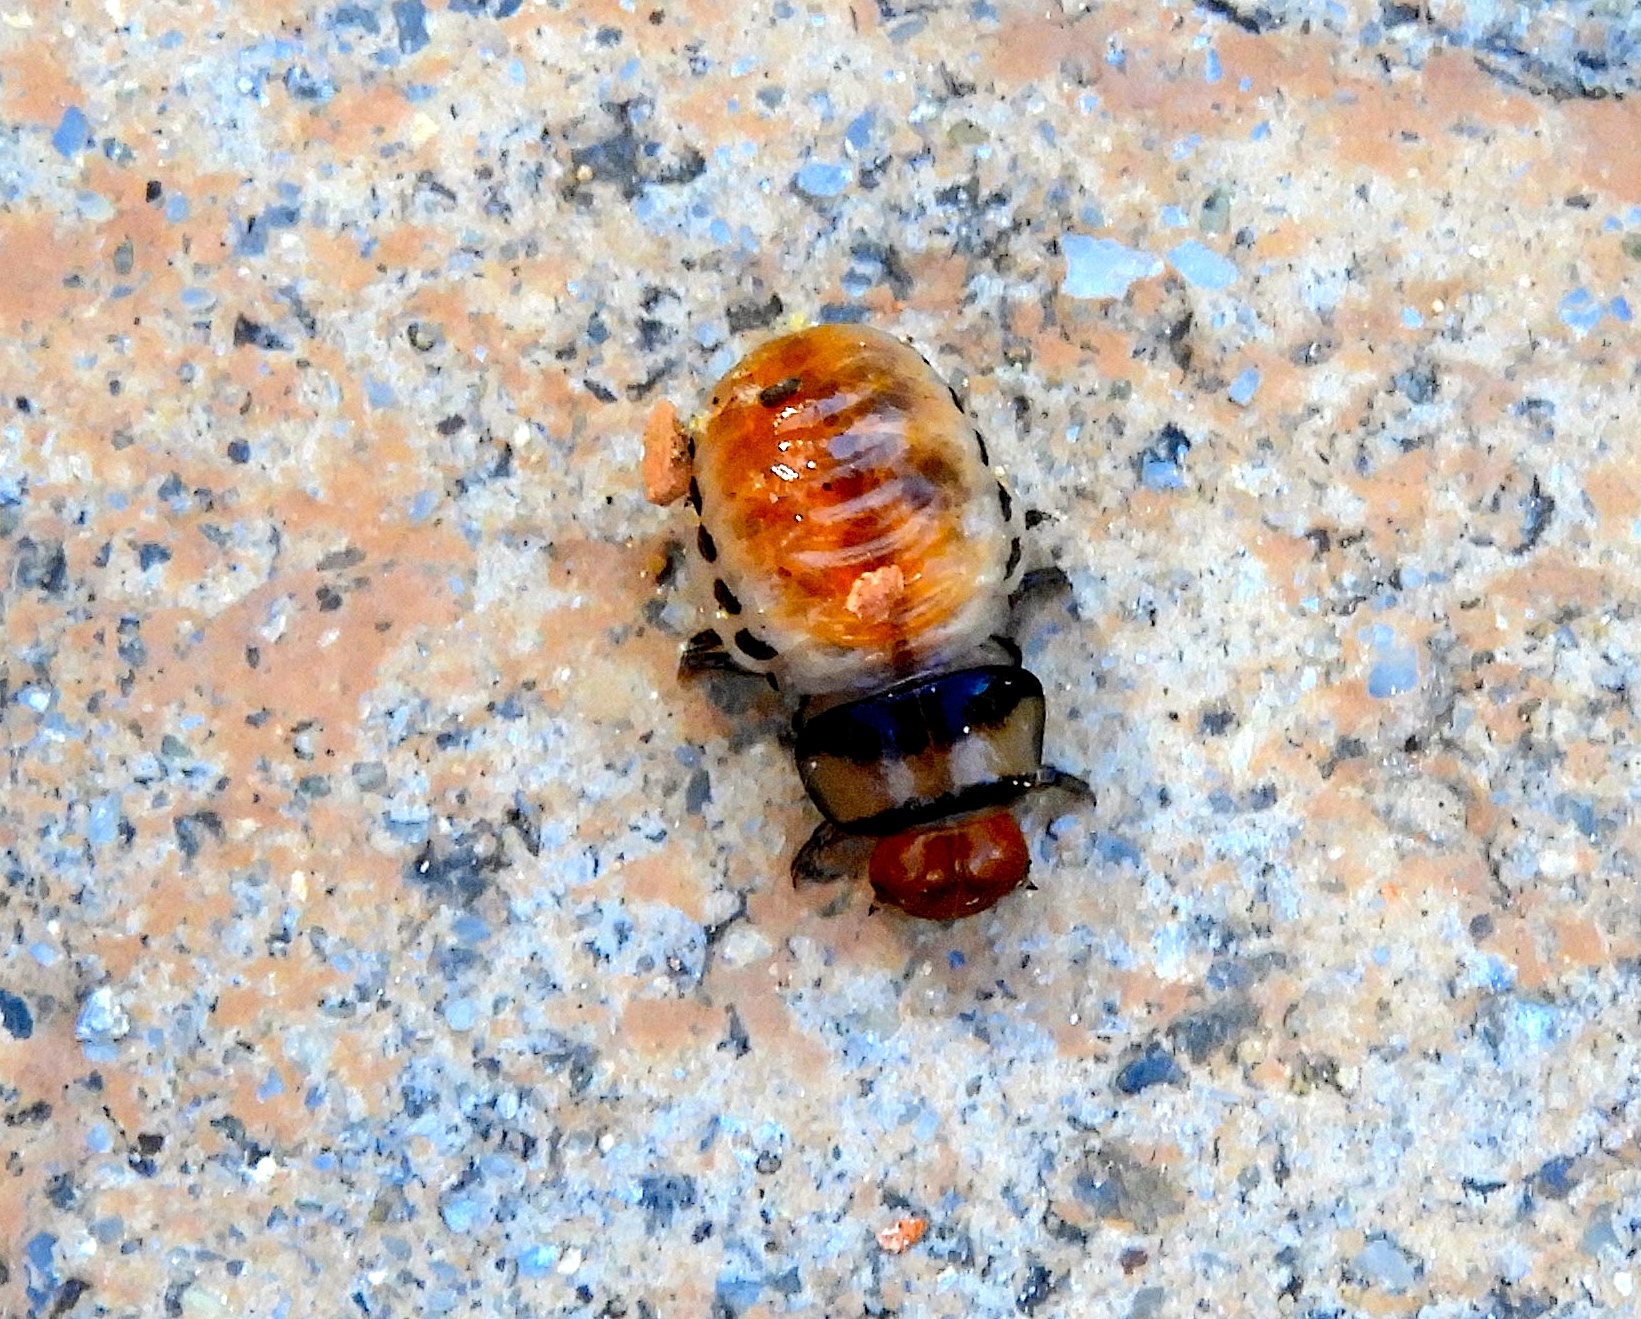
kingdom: Animalia
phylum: Arthropoda
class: Insecta
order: Coleoptera
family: Chrysomelinae
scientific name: Chrysomelinae
